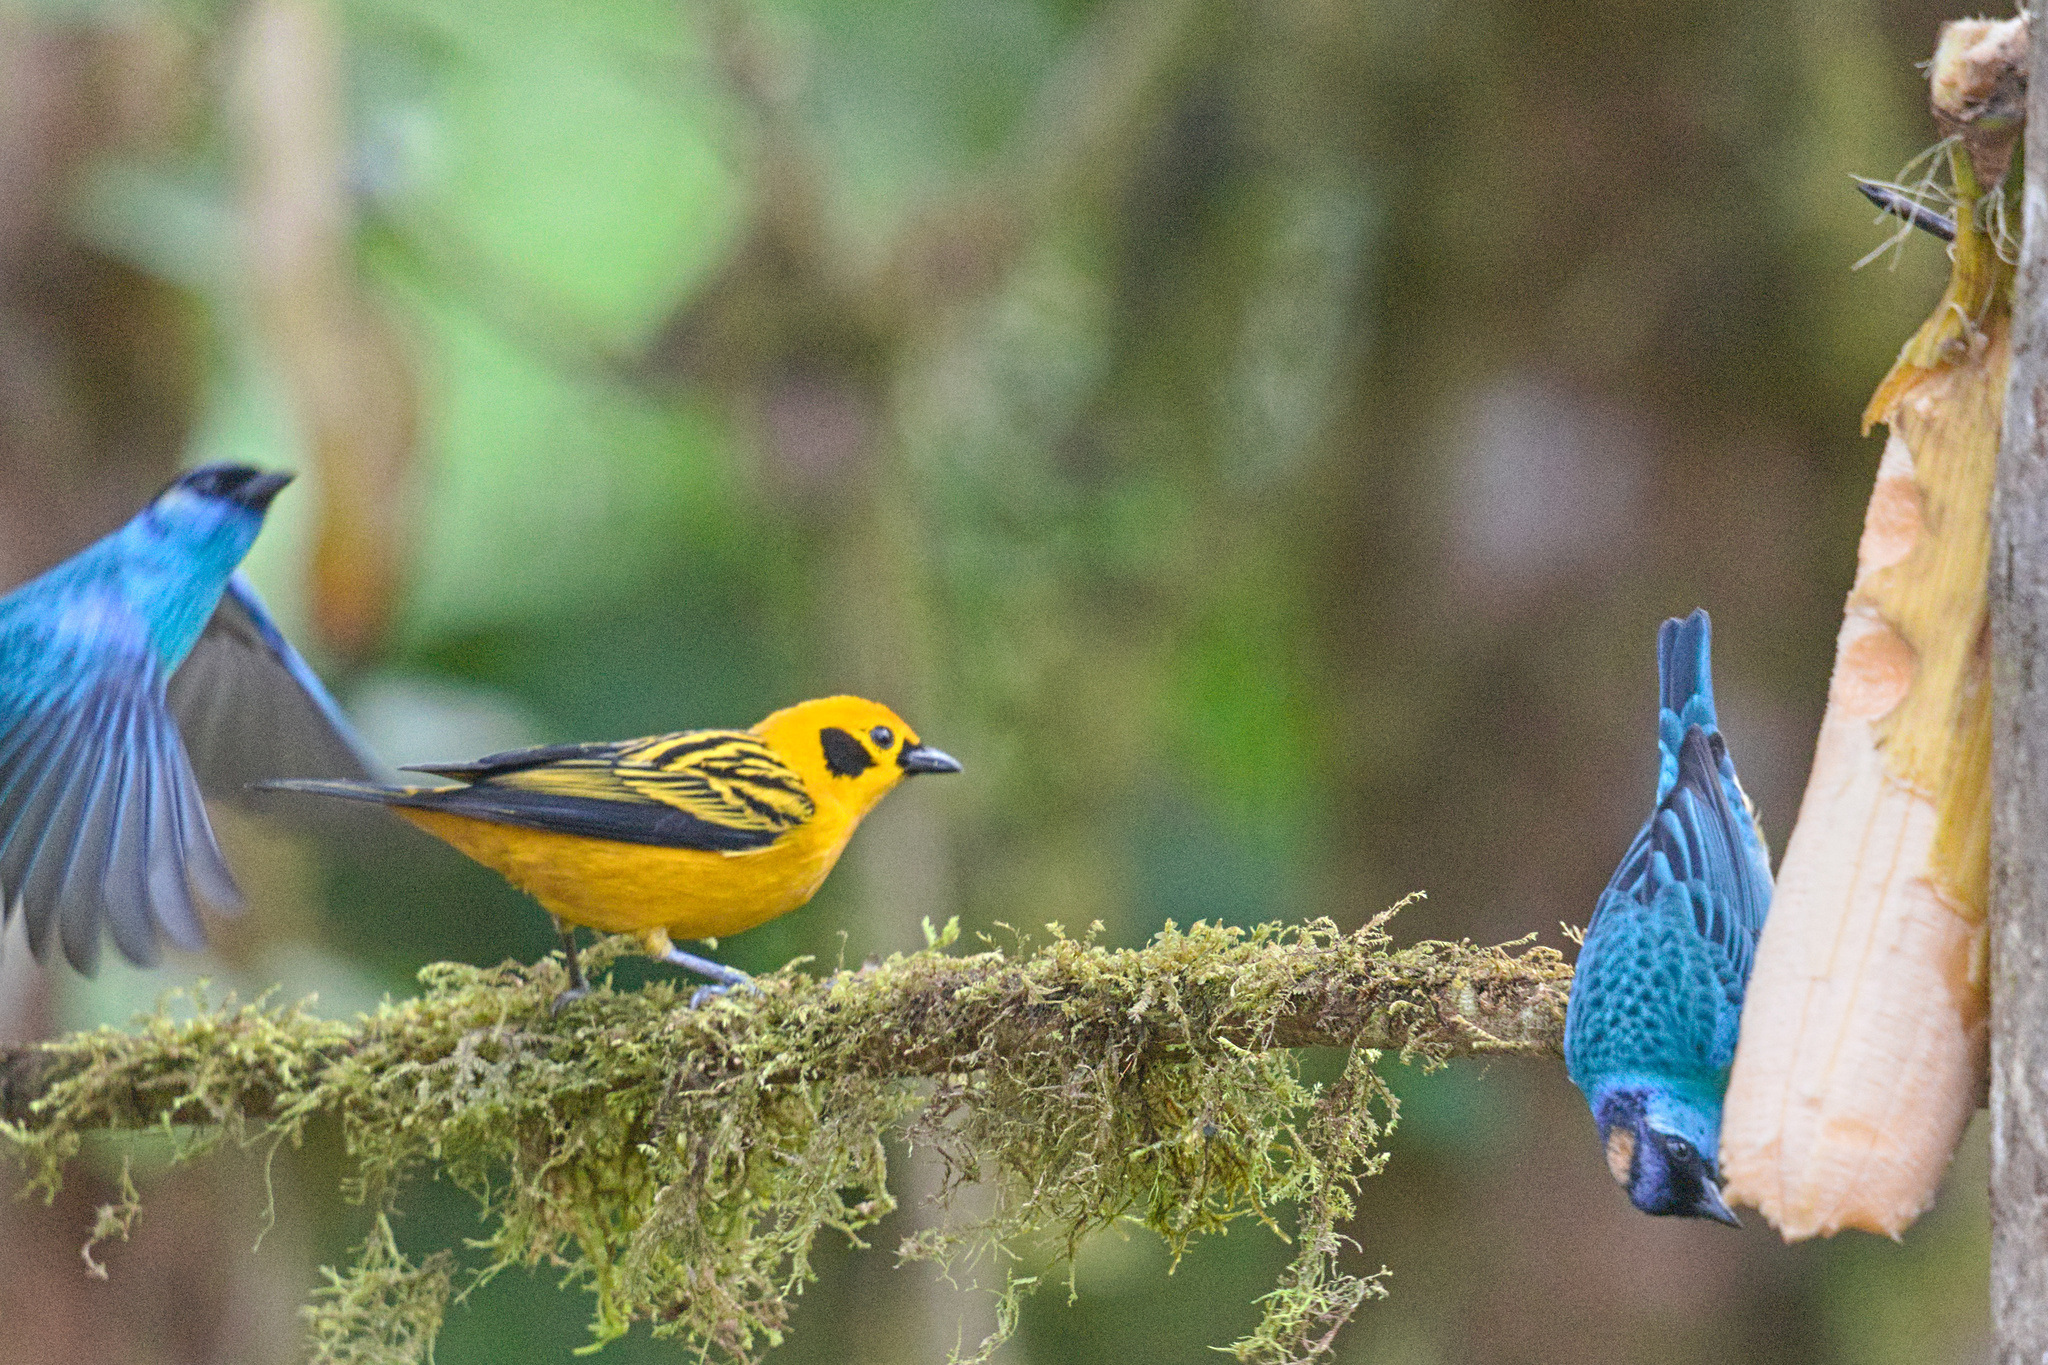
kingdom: Animalia
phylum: Chordata
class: Aves
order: Passeriformes
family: Thraupidae
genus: Chalcothraupis
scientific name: Chalcothraupis ruficervix
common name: Golden-naped tanager
